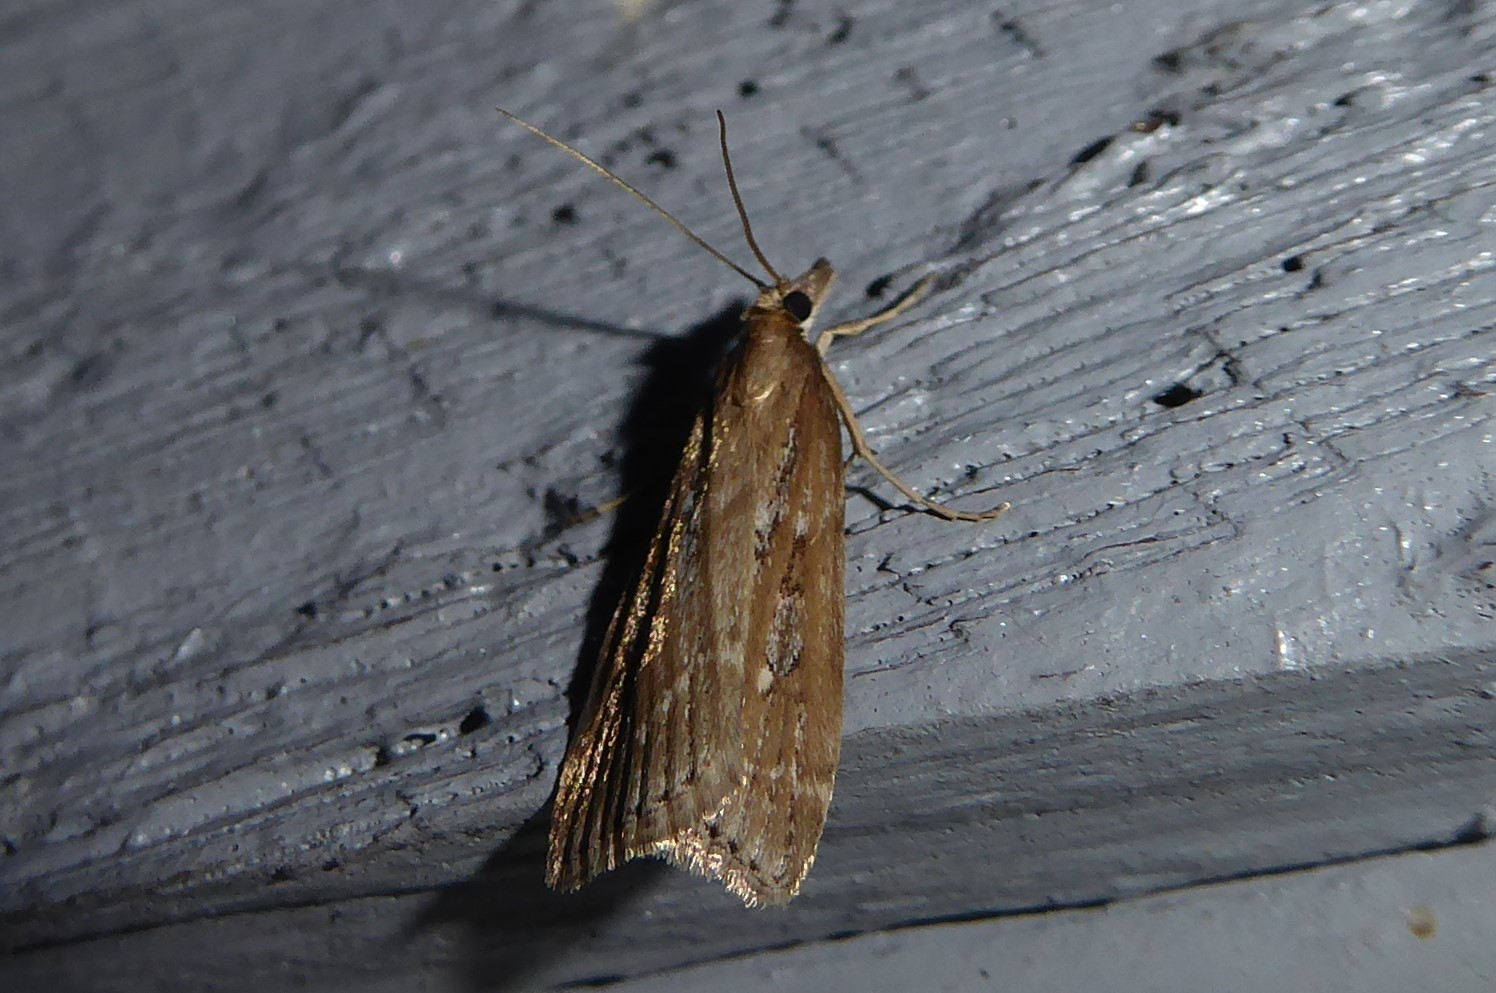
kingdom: Animalia
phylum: Arthropoda
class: Insecta
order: Lepidoptera
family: Crambidae
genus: Eudonia
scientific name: Eudonia octophora
